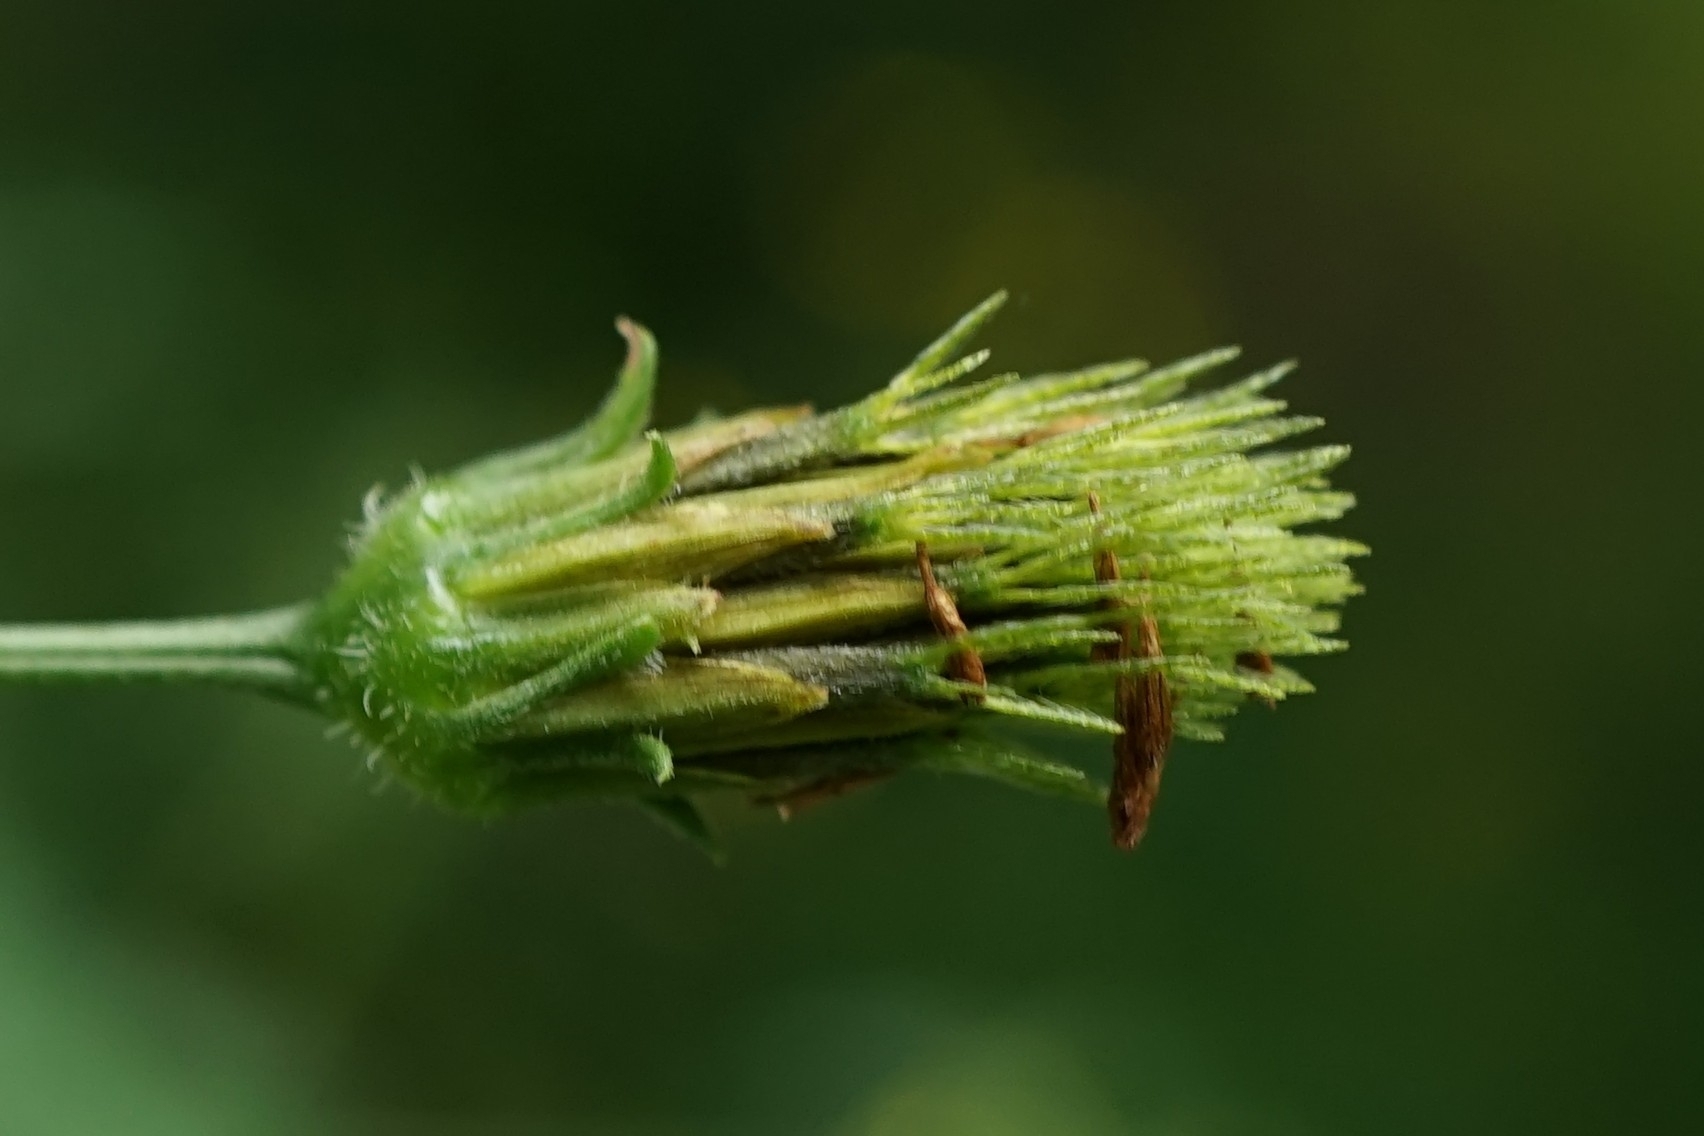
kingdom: Plantae
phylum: Tracheophyta
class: Magnoliopsida
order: Asterales
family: Asteraceae
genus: Bidens
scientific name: Bidens biternata
